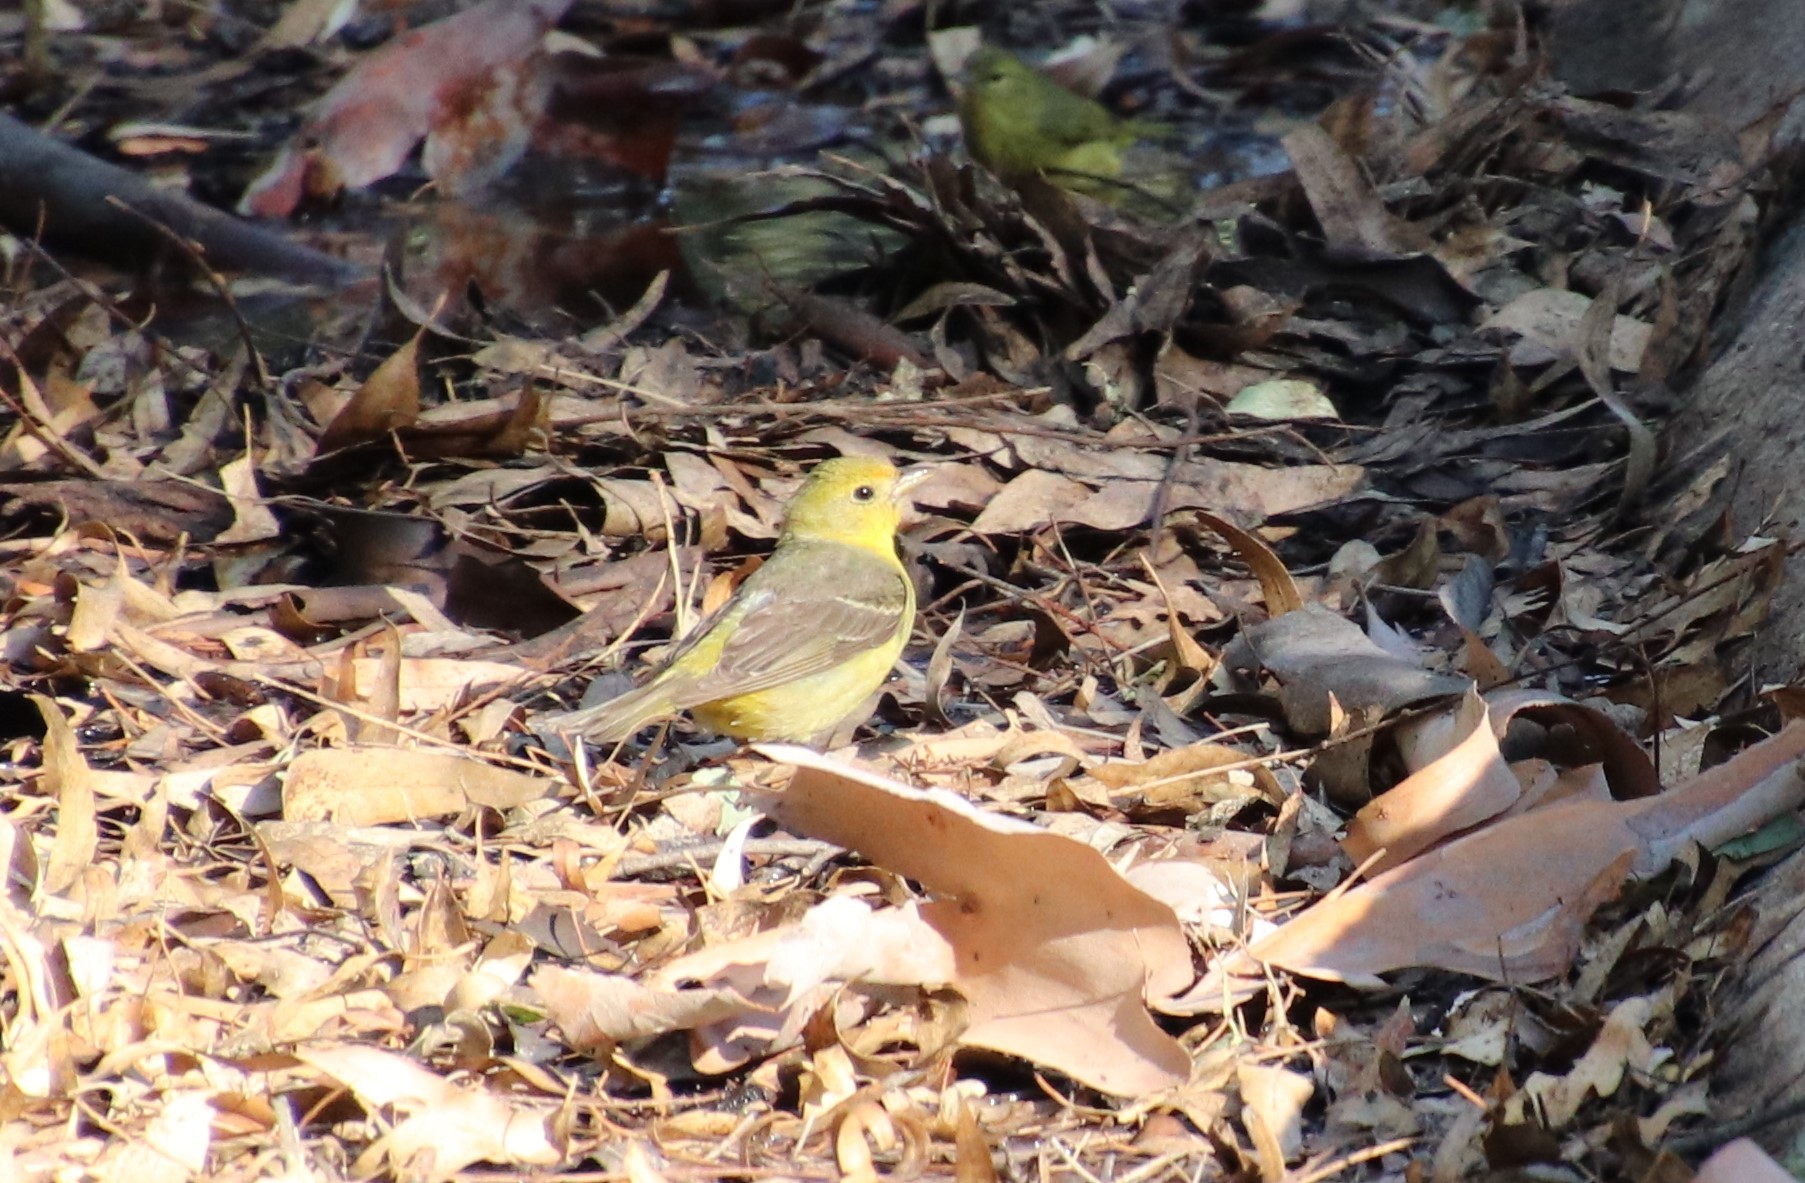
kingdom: Animalia
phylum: Chordata
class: Aves
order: Passeriformes
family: Cardinalidae
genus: Piranga
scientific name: Piranga ludoviciana
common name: Western tanager
